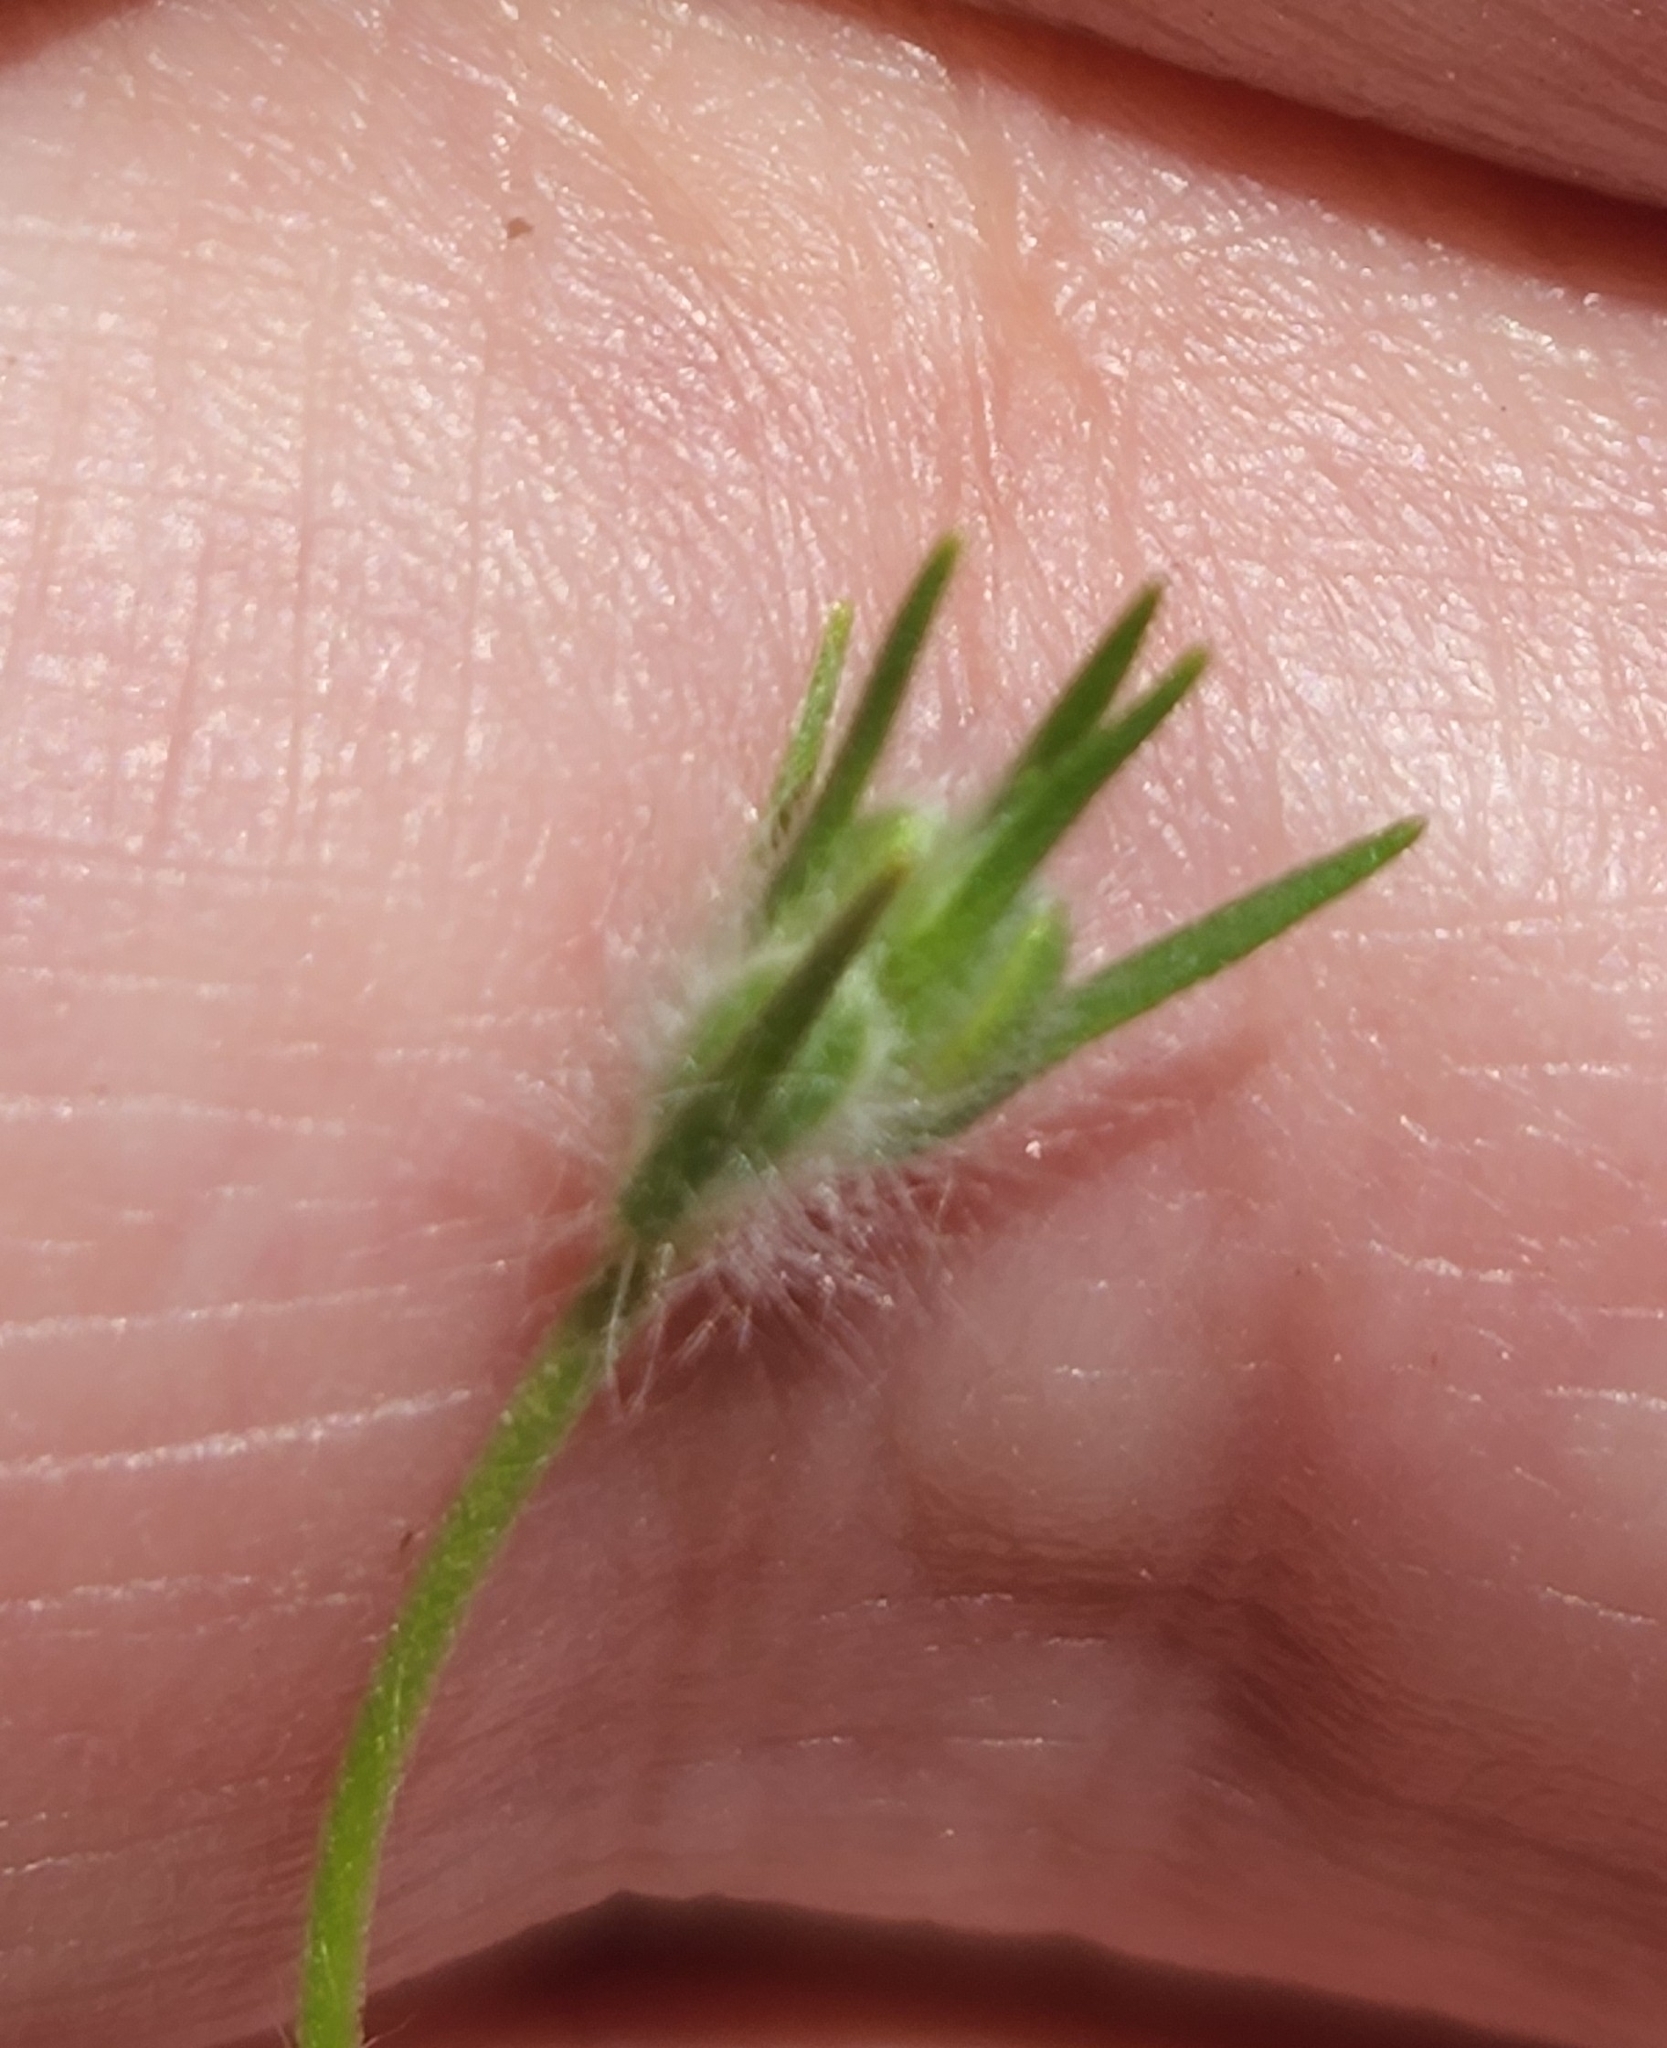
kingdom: Plantae
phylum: Tracheophyta
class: Magnoliopsida
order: Lamiales
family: Plantaginaceae
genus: Plantago
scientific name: Plantago aristata
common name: Bracted plantain
